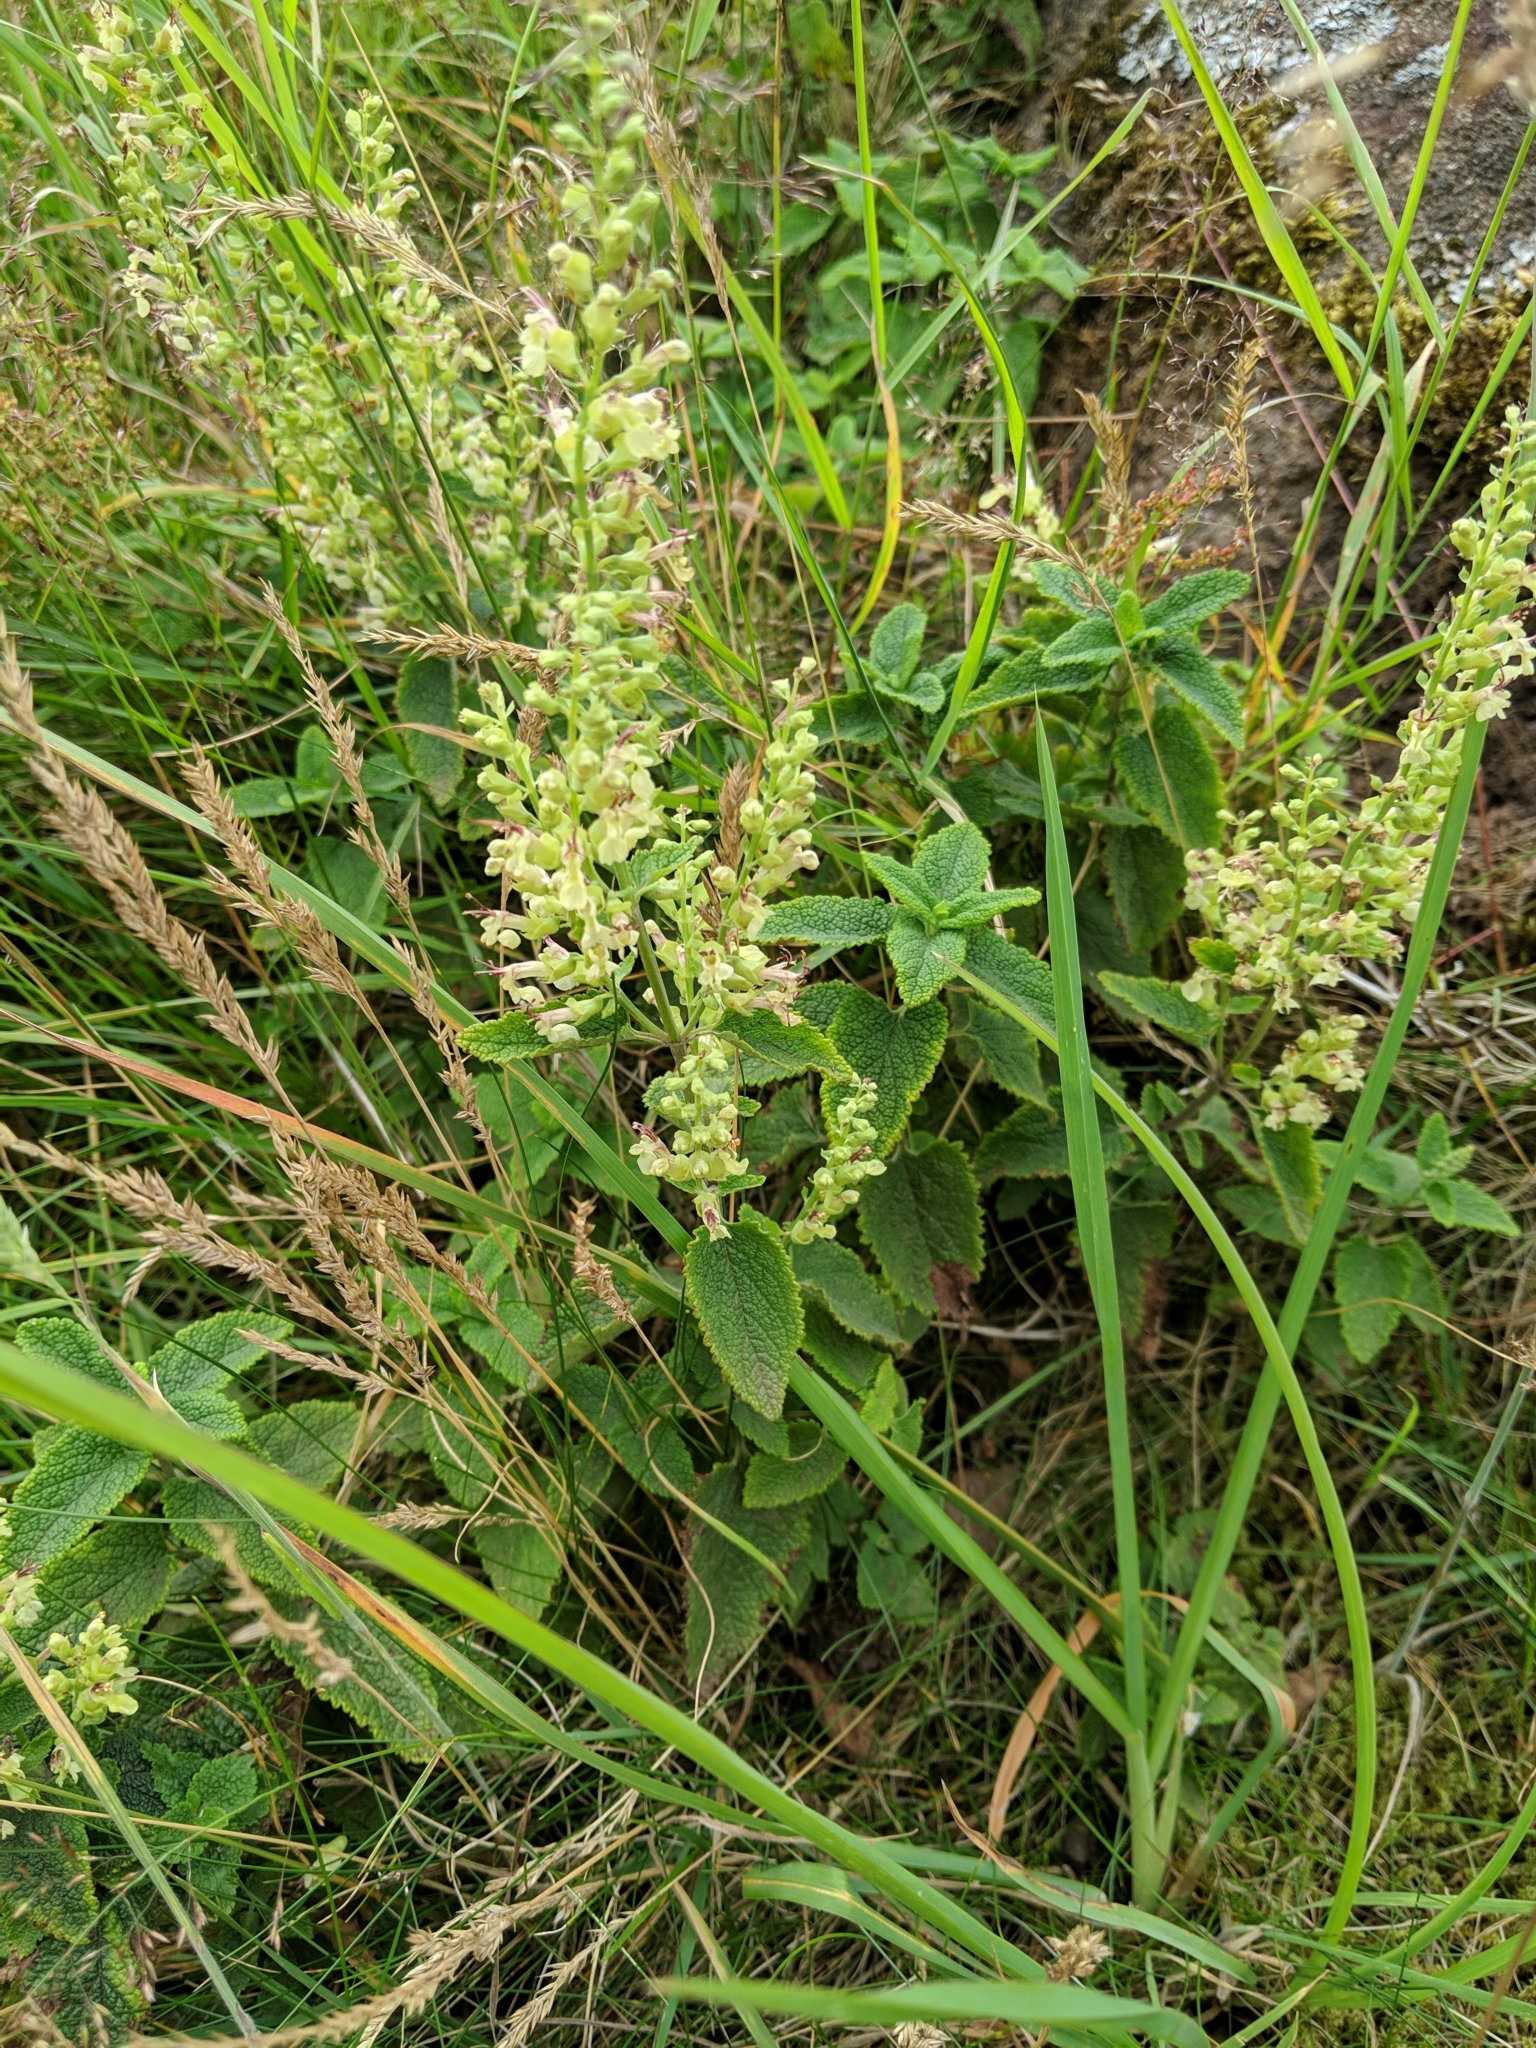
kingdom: Plantae
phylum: Tracheophyta
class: Magnoliopsida
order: Lamiales
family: Lamiaceae
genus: Teucrium
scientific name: Teucrium scorodonia
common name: Woodland germander
